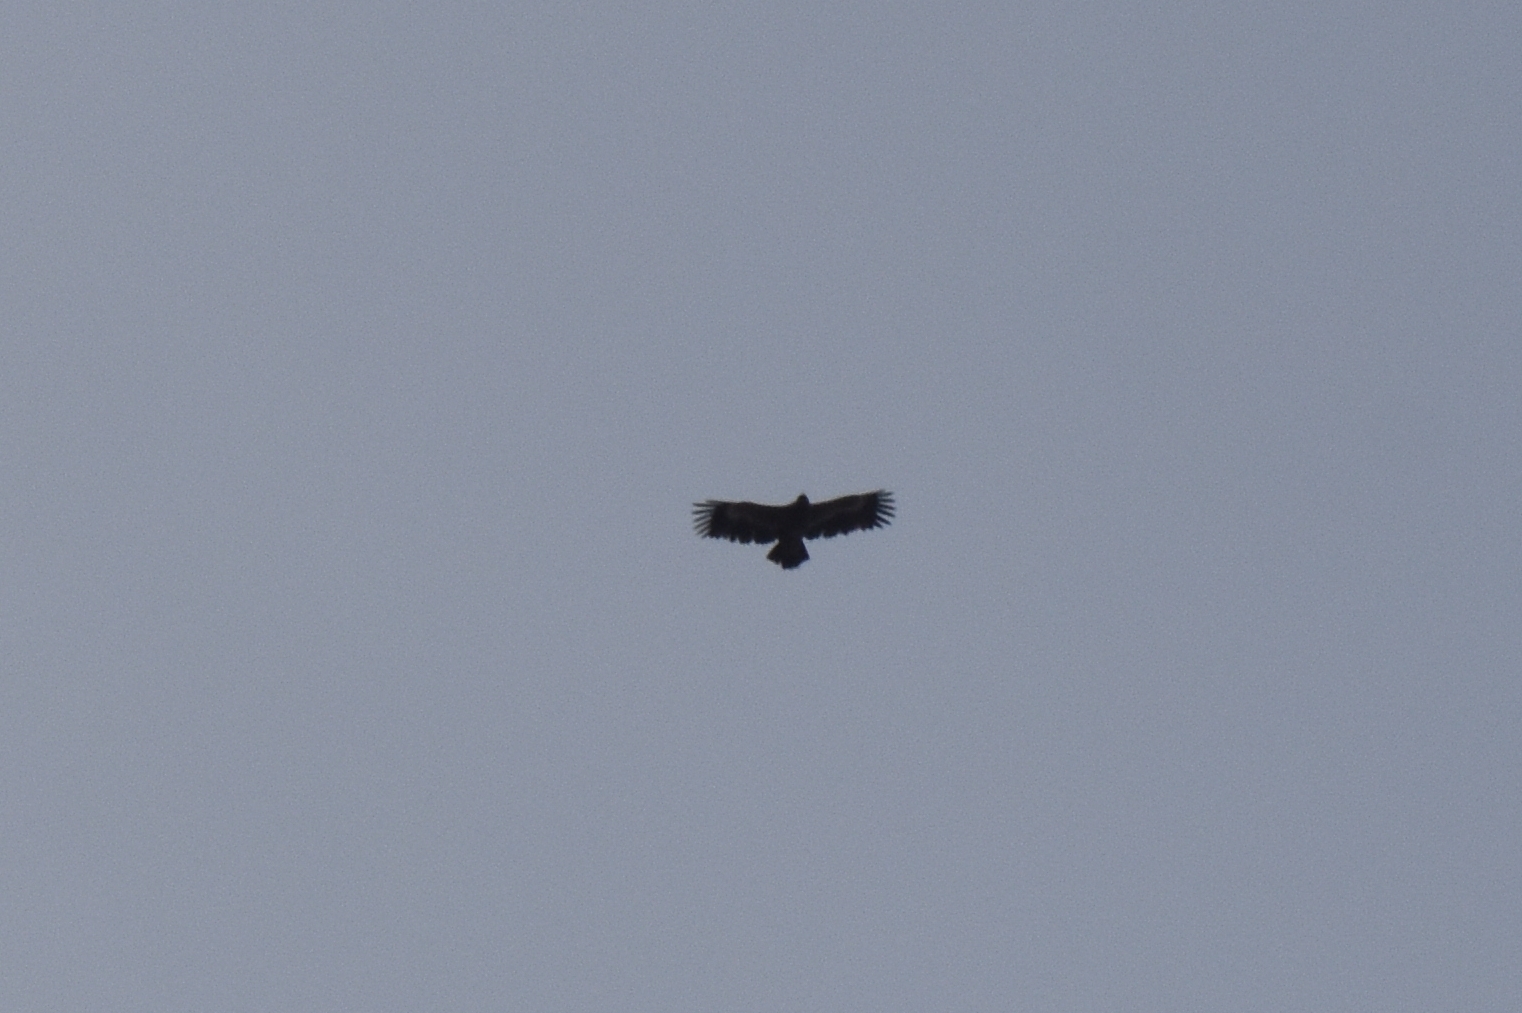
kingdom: Animalia
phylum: Chordata
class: Aves
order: Accipitriformes
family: Accipitridae
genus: Aquila
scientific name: Aquila nipalensis
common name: Steppe eagle
